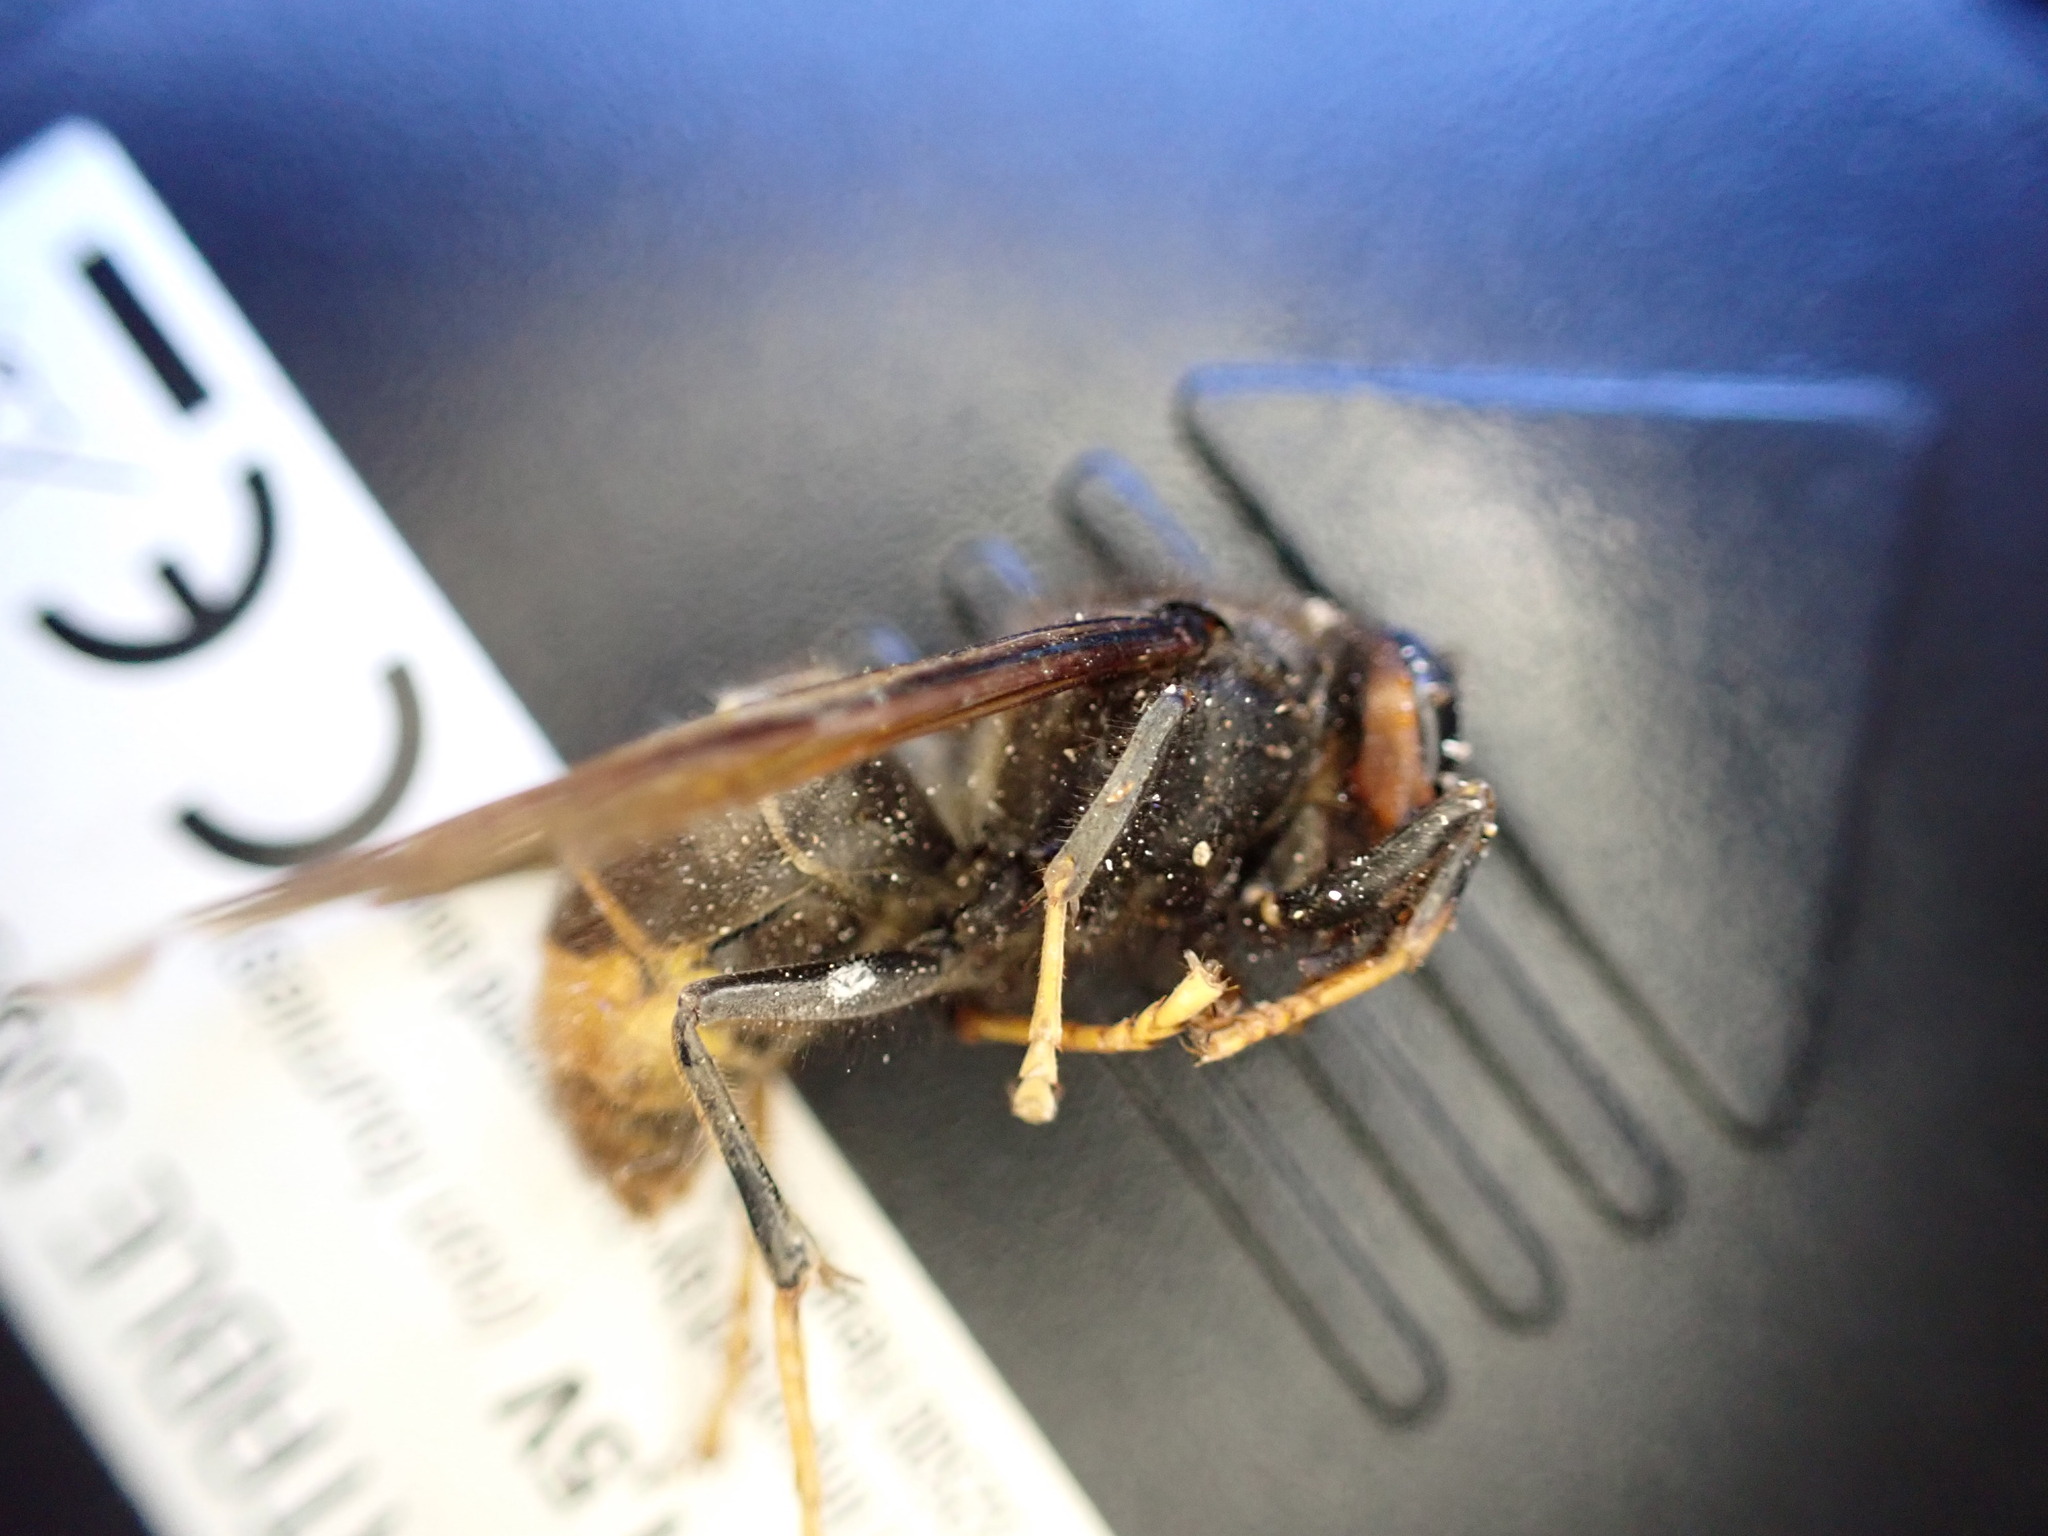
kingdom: Animalia
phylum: Arthropoda
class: Insecta
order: Hymenoptera
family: Vespidae
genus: Vespa
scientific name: Vespa velutina
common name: Asian hornet
